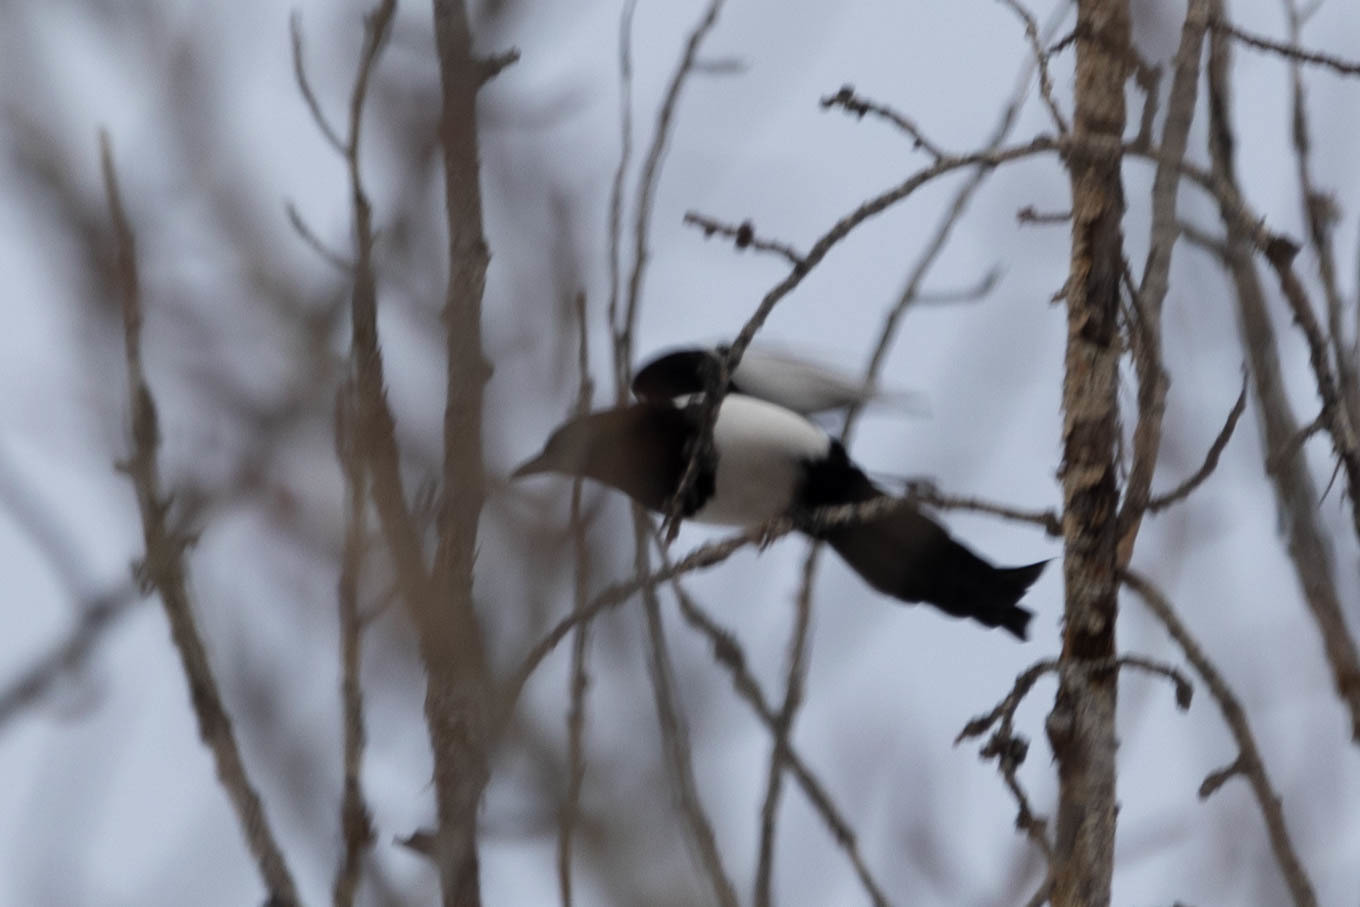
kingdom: Animalia
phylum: Chordata
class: Aves
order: Passeriformes
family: Corvidae
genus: Pica
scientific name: Pica hudsonia
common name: Black-billed magpie
